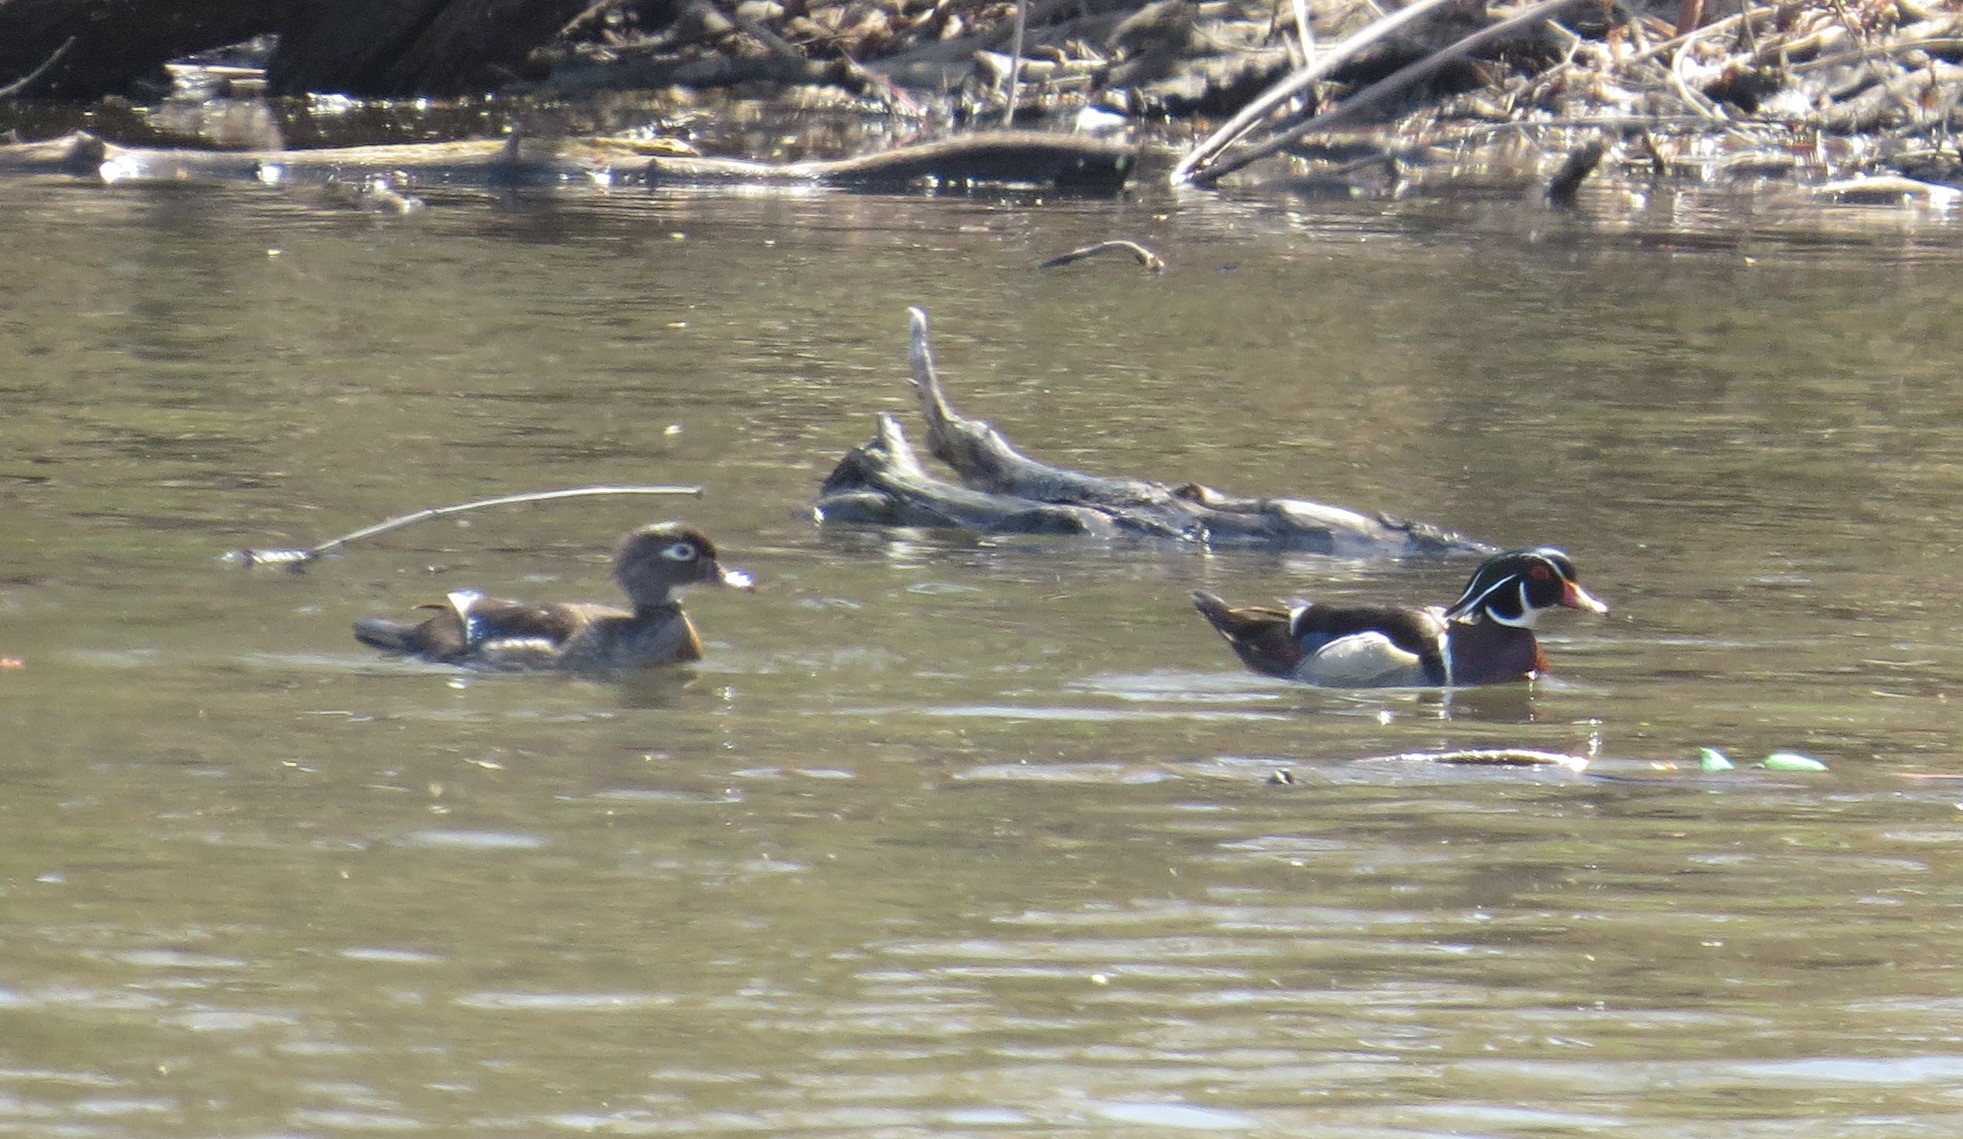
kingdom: Animalia
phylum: Chordata
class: Aves
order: Anseriformes
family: Anatidae
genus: Aix
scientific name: Aix sponsa
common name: Wood duck
